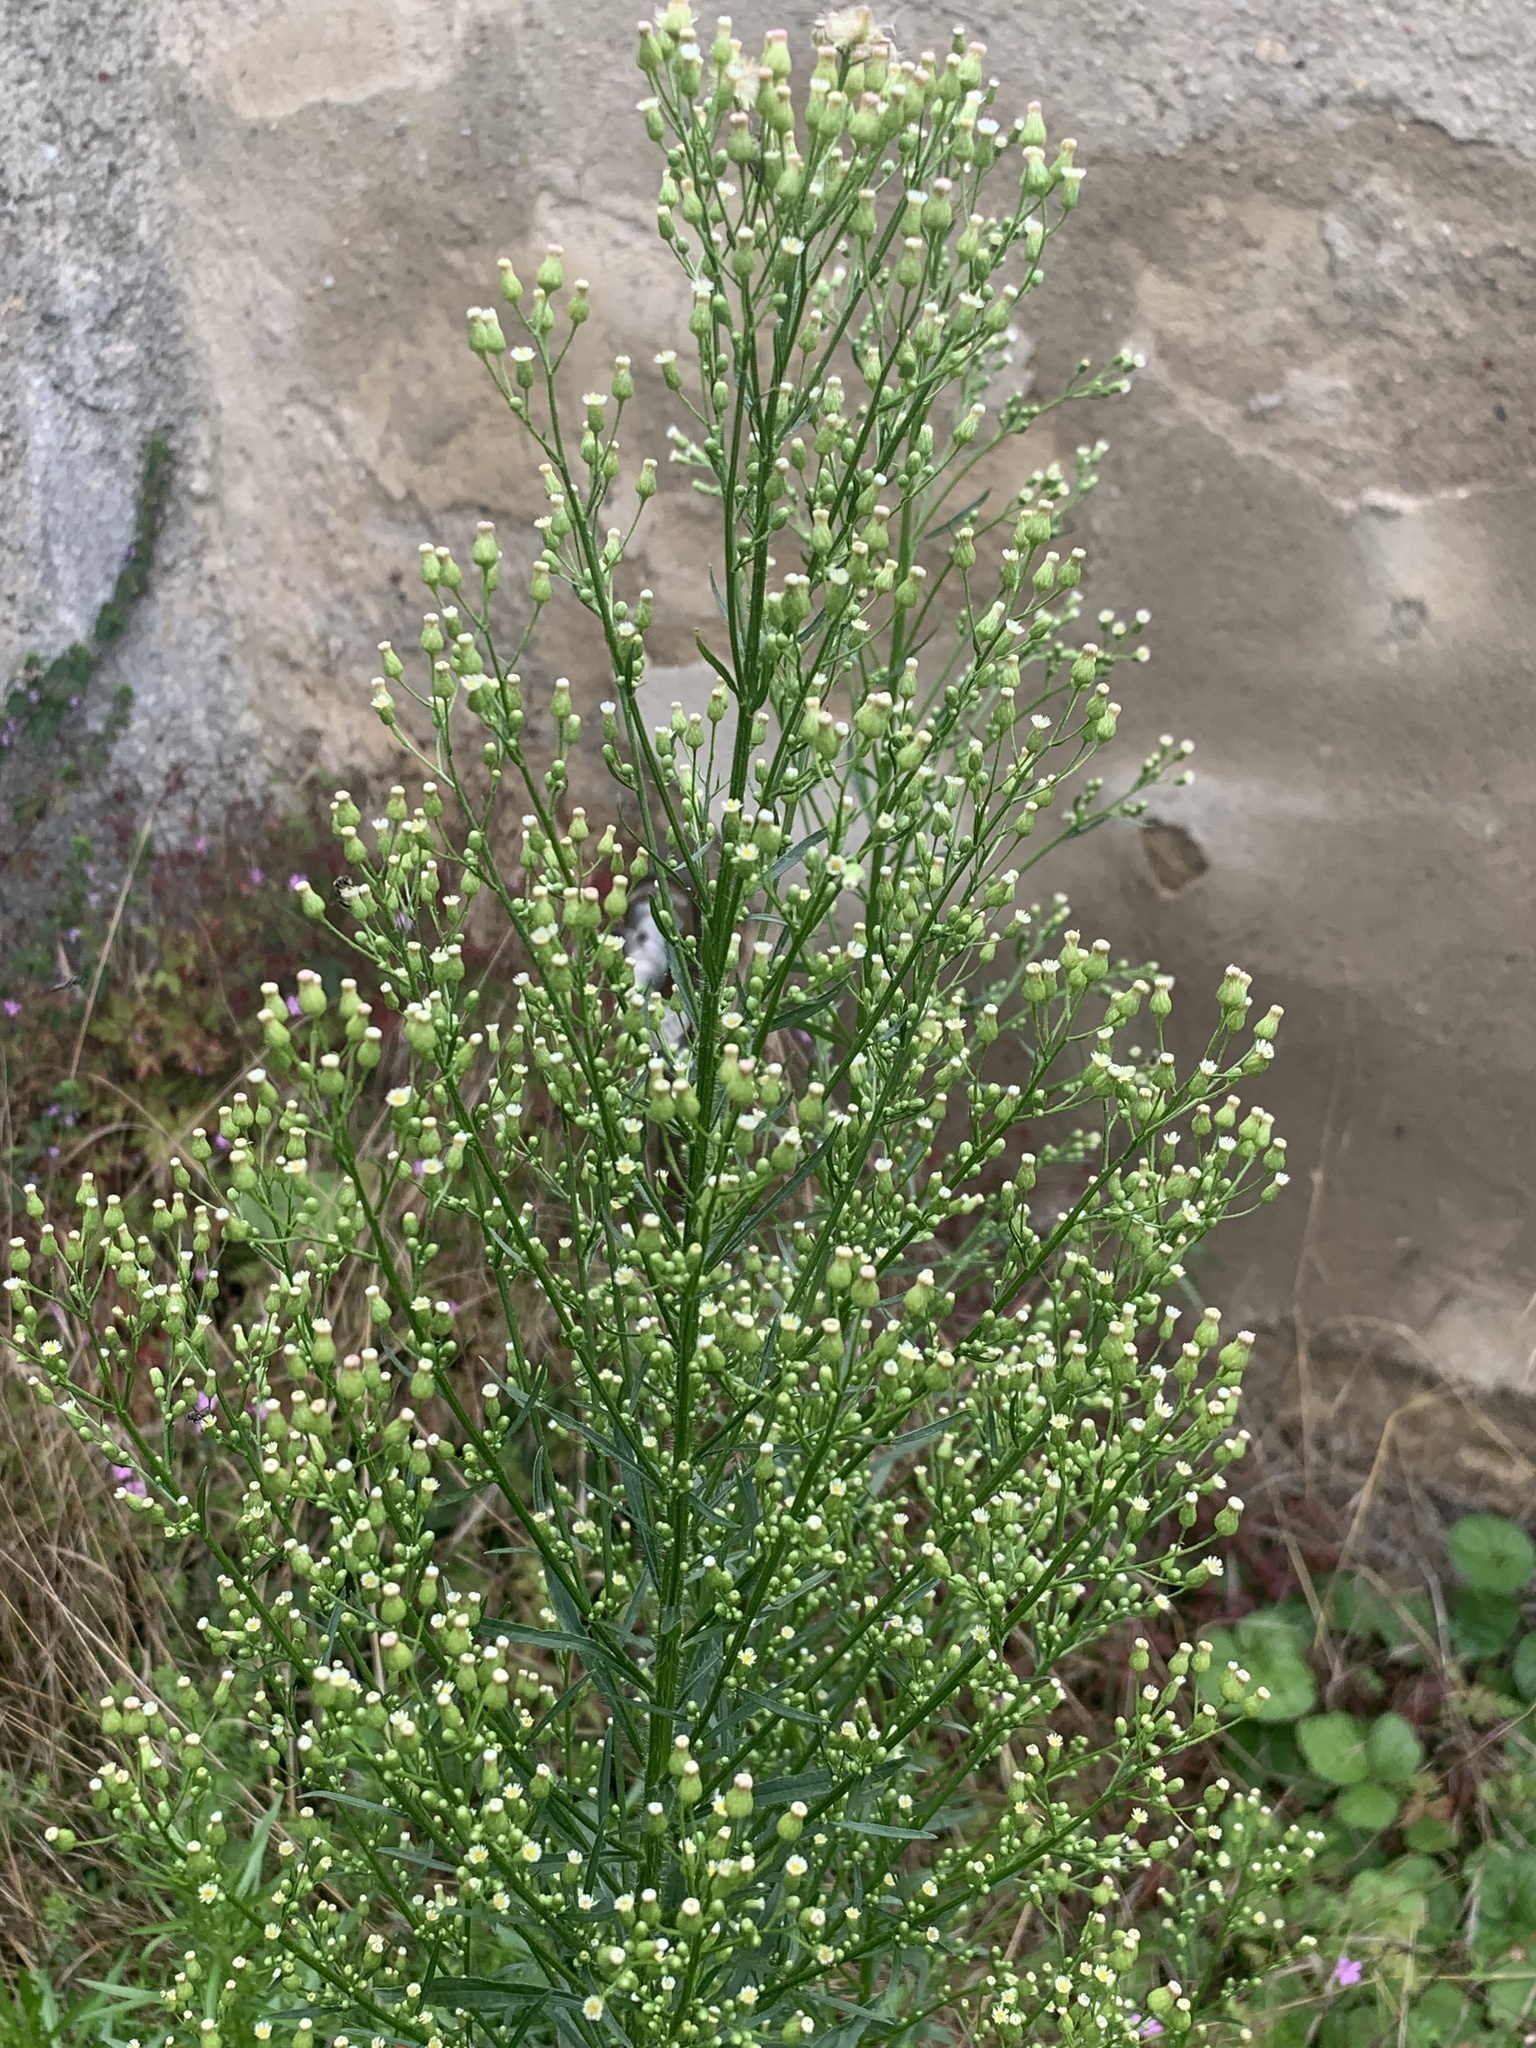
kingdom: Plantae
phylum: Tracheophyta
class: Magnoliopsida
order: Asterales
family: Asteraceae
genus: Erigeron
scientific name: Erigeron canadensis
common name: Canadian fleabane
